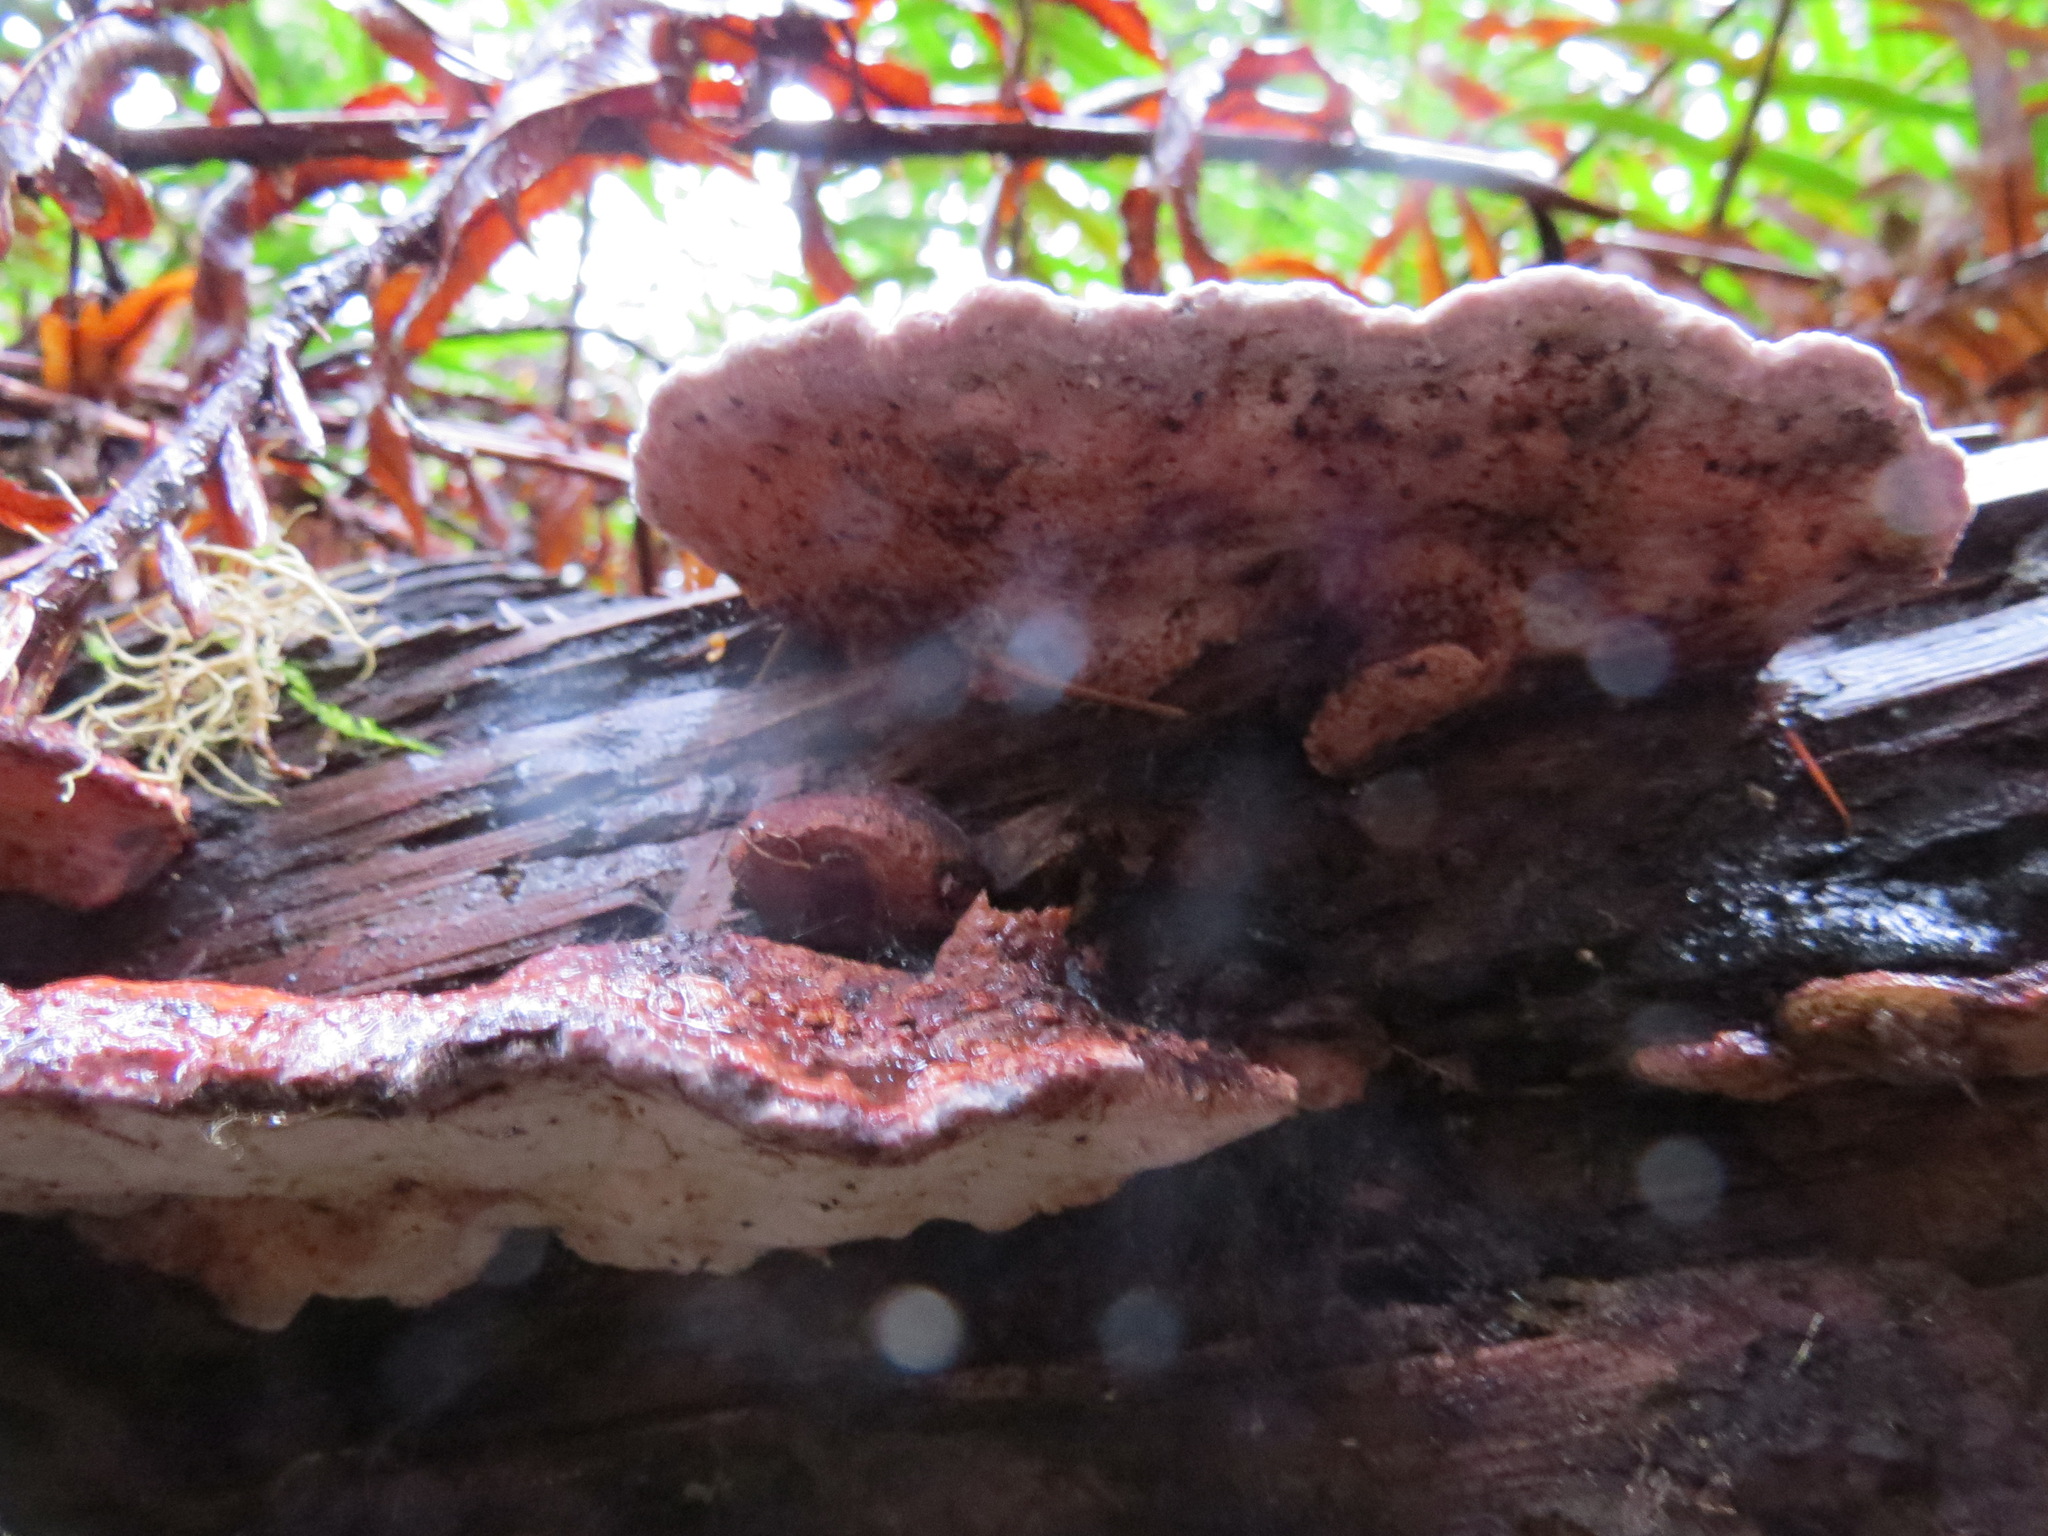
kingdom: Fungi
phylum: Basidiomycota
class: Agaricomycetes
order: Polyporales
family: Fomitopsidaceae
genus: Rhodofomes
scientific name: Rhodofomes cajanderi
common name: Rosy conk
